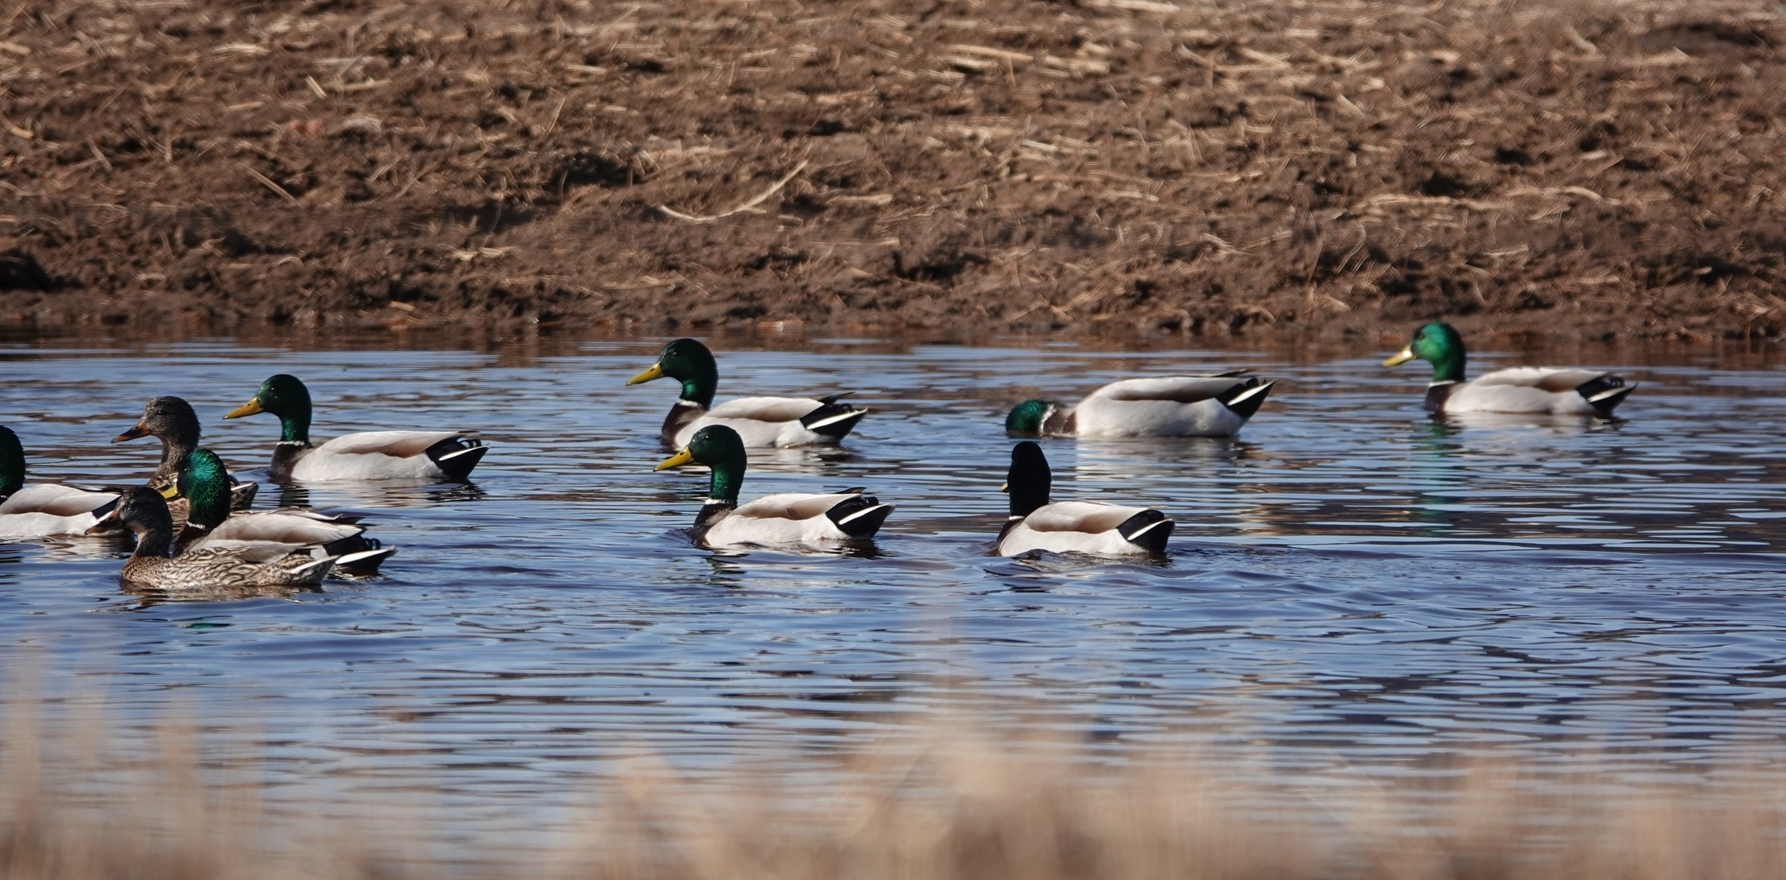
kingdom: Animalia
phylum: Chordata
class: Aves
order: Anseriformes
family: Anatidae
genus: Anas
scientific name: Anas platyrhynchos
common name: Mallard
